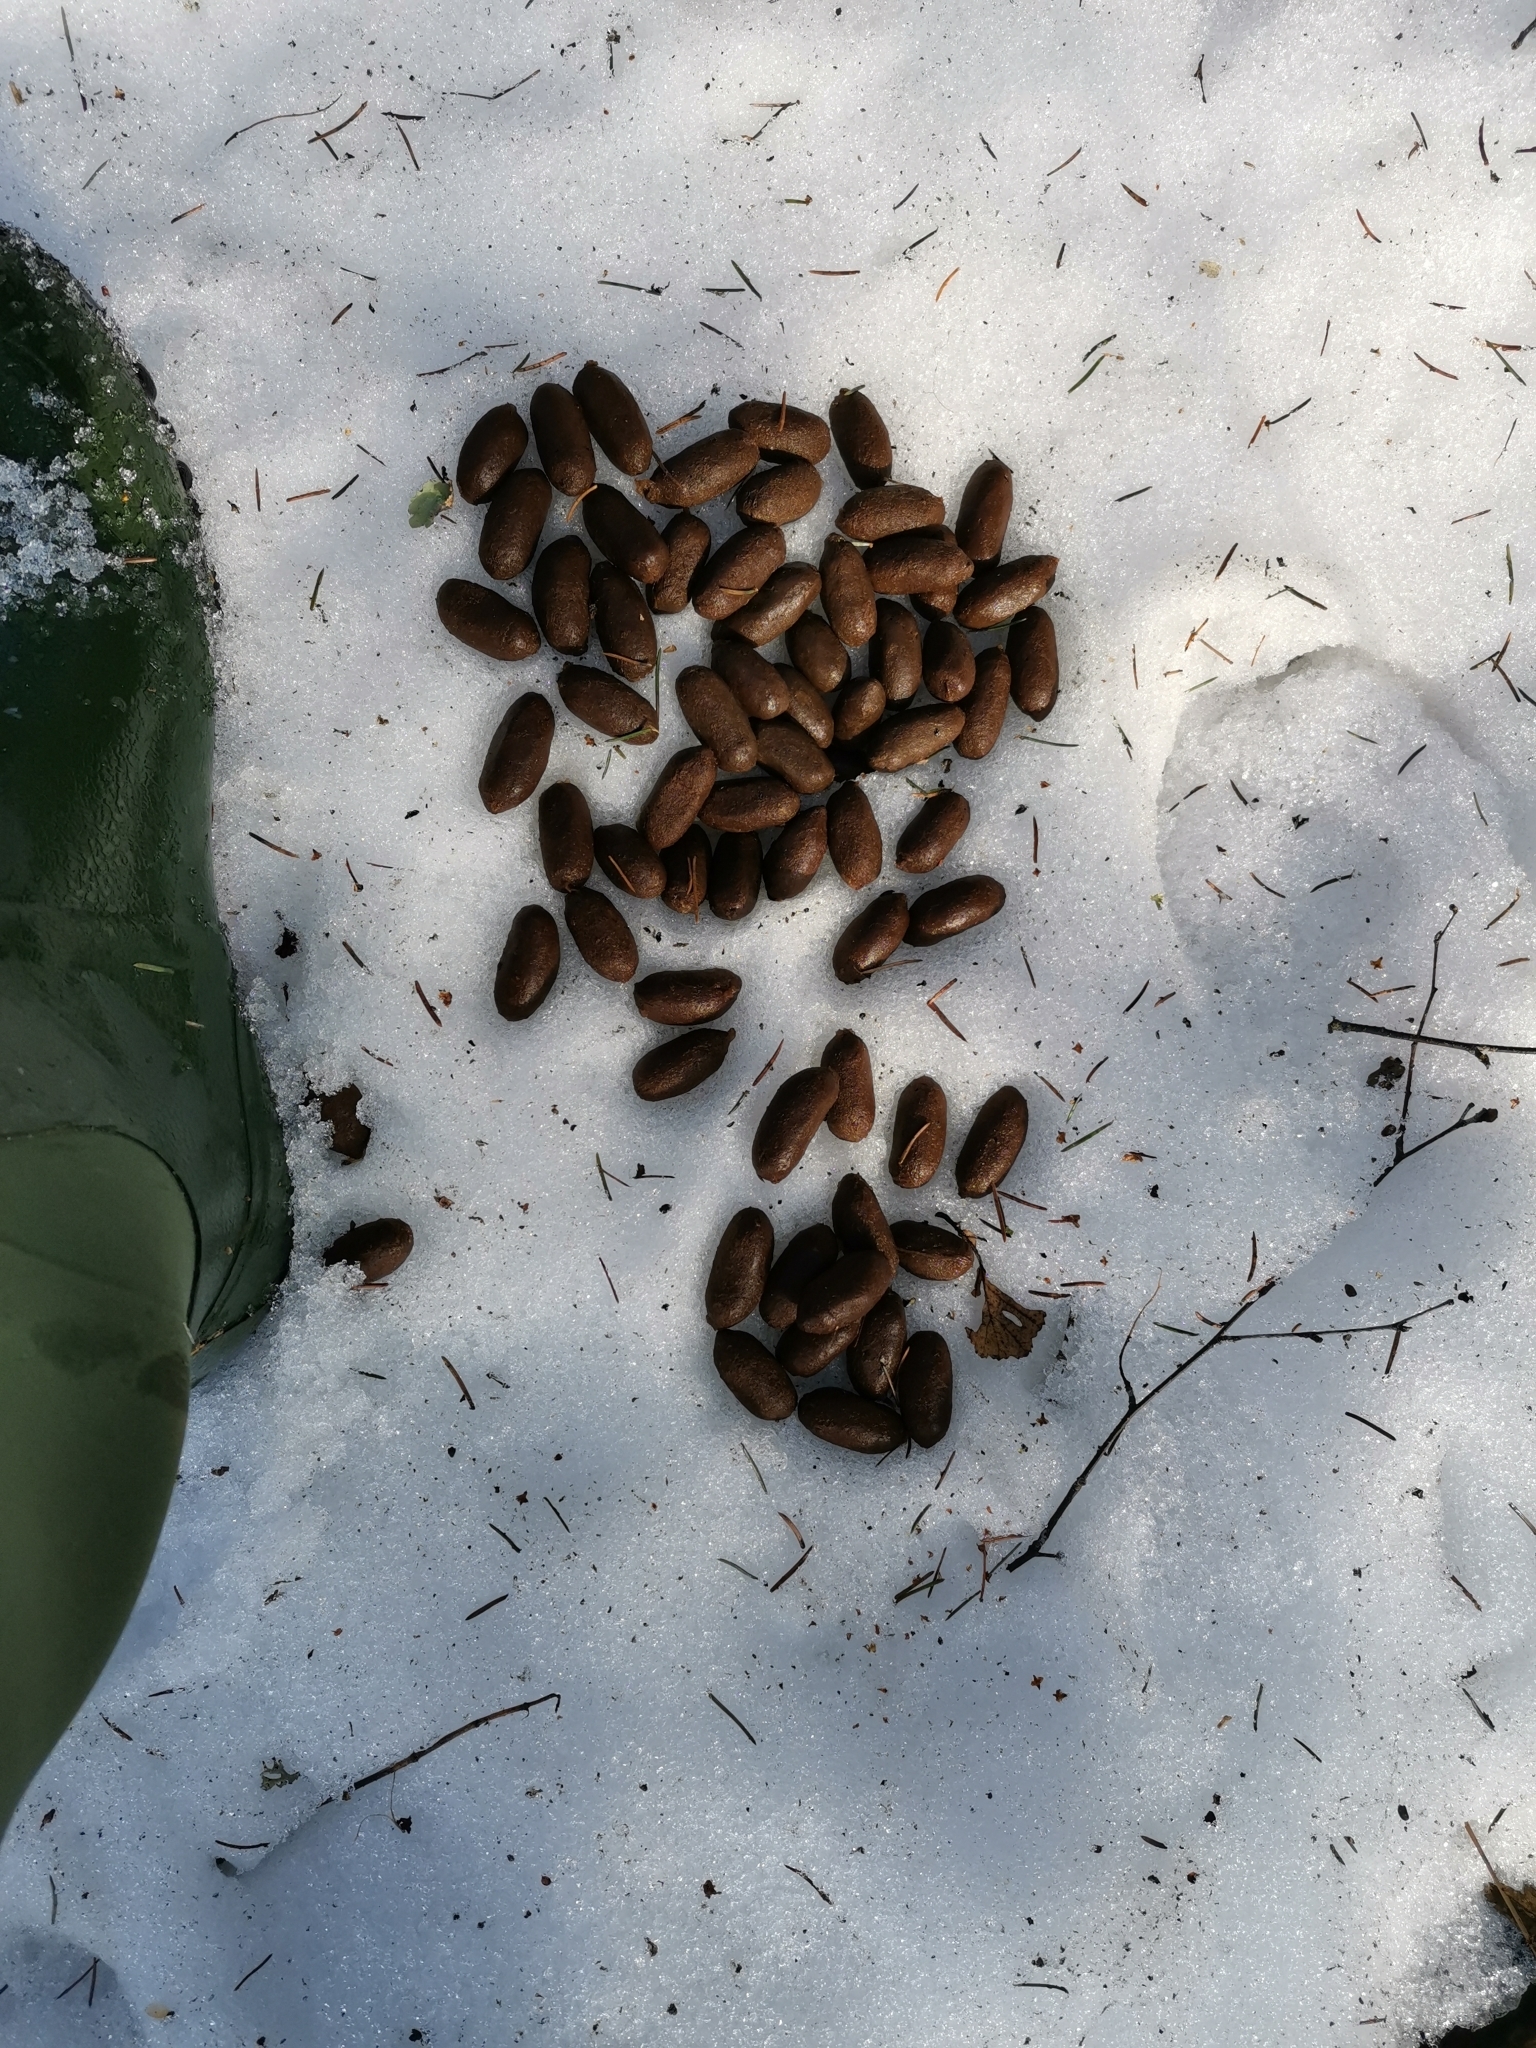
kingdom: Animalia
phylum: Chordata
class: Mammalia
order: Artiodactyla
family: Cervidae
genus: Alces
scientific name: Alces alces
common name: Moose
